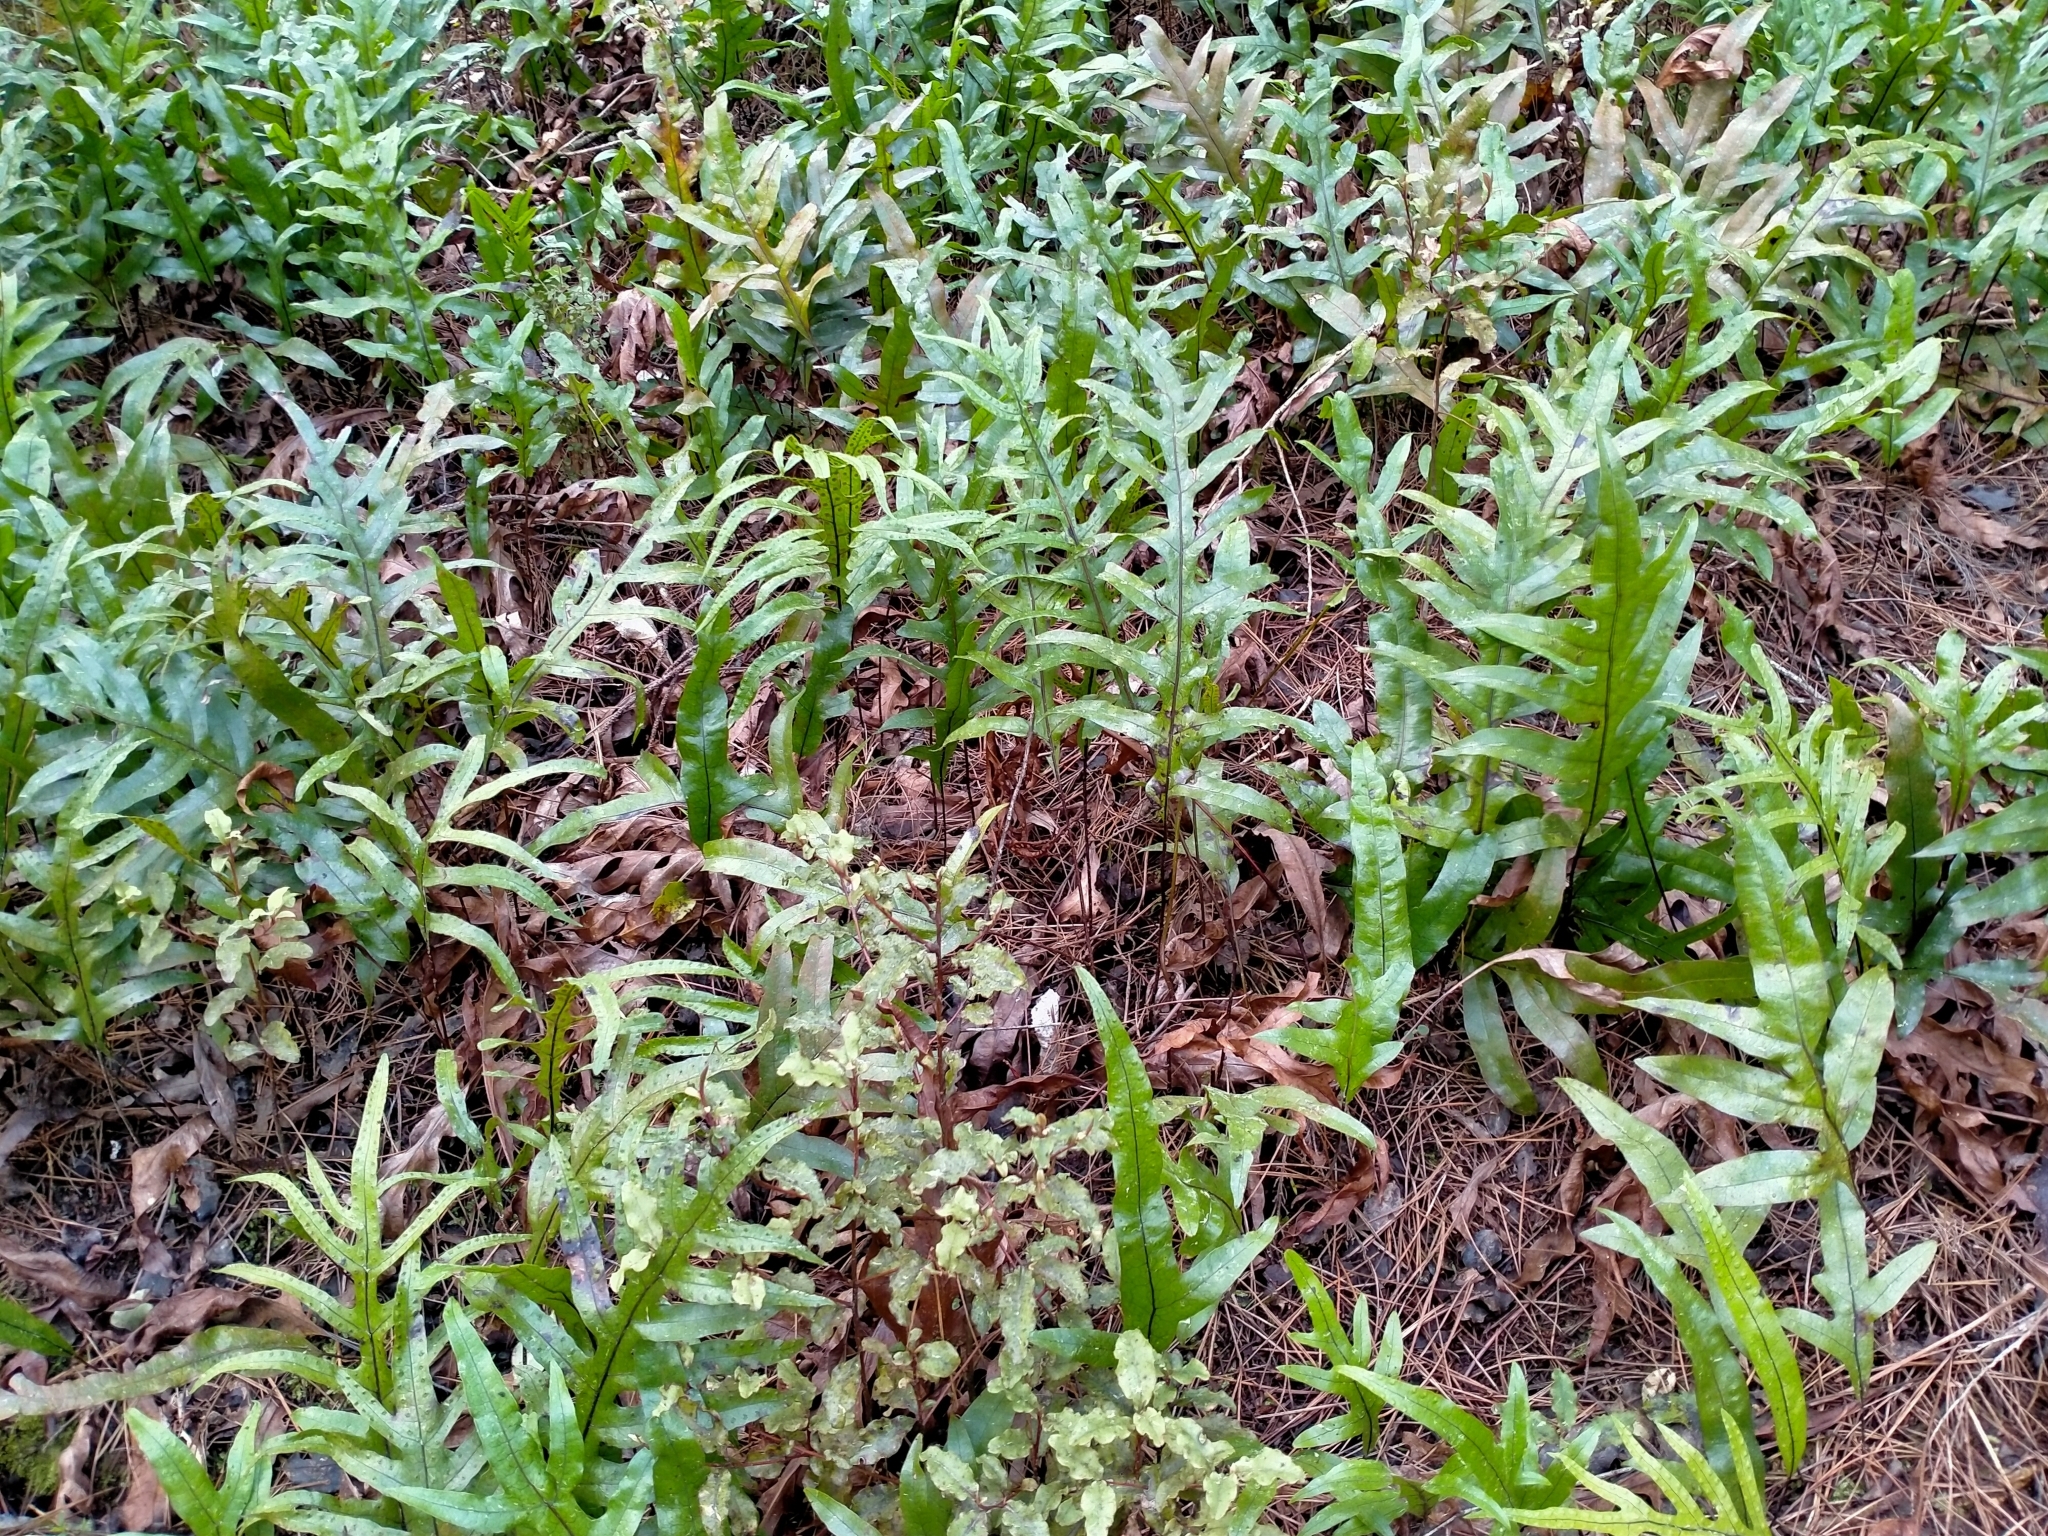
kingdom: Plantae
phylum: Tracheophyta
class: Polypodiopsida
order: Polypodiales
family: Polypodiaceae
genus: Lecanopteris
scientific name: Lecanopteris pustulata
